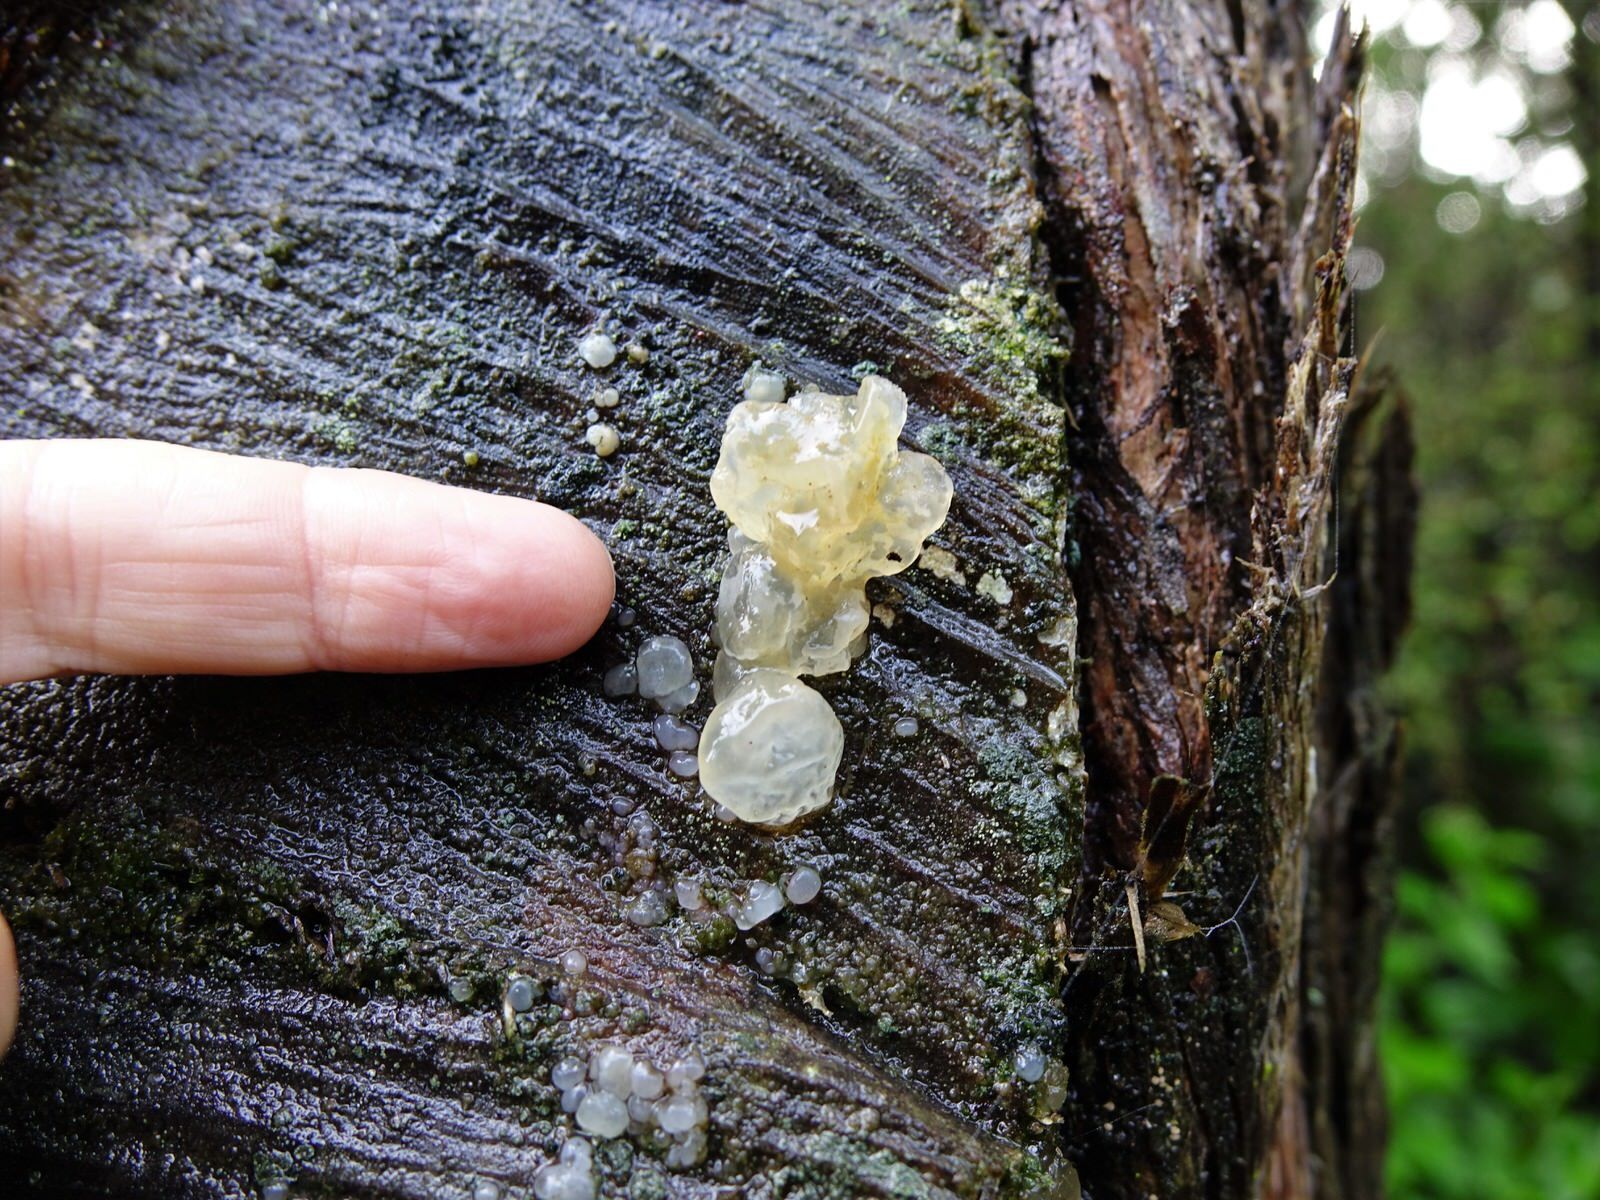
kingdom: Fungi
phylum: Basidiomycota
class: Tremellomycetes
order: Tremellales
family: Tremellaceae
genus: Tremella
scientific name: Tremella fuciformis
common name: Snow fungus
